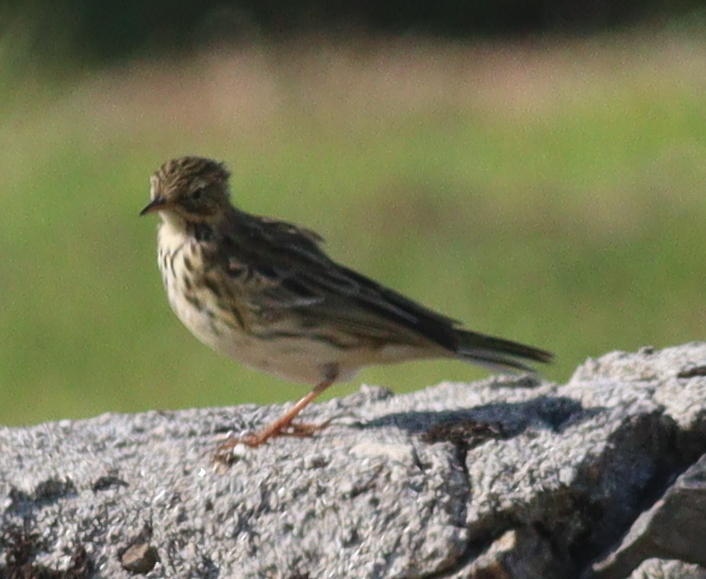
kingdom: Animalia
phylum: Chordata
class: Aves
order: Passeriformes
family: Motacillidae
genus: Anthus
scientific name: Anthus pratensis
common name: Meadow pipit
